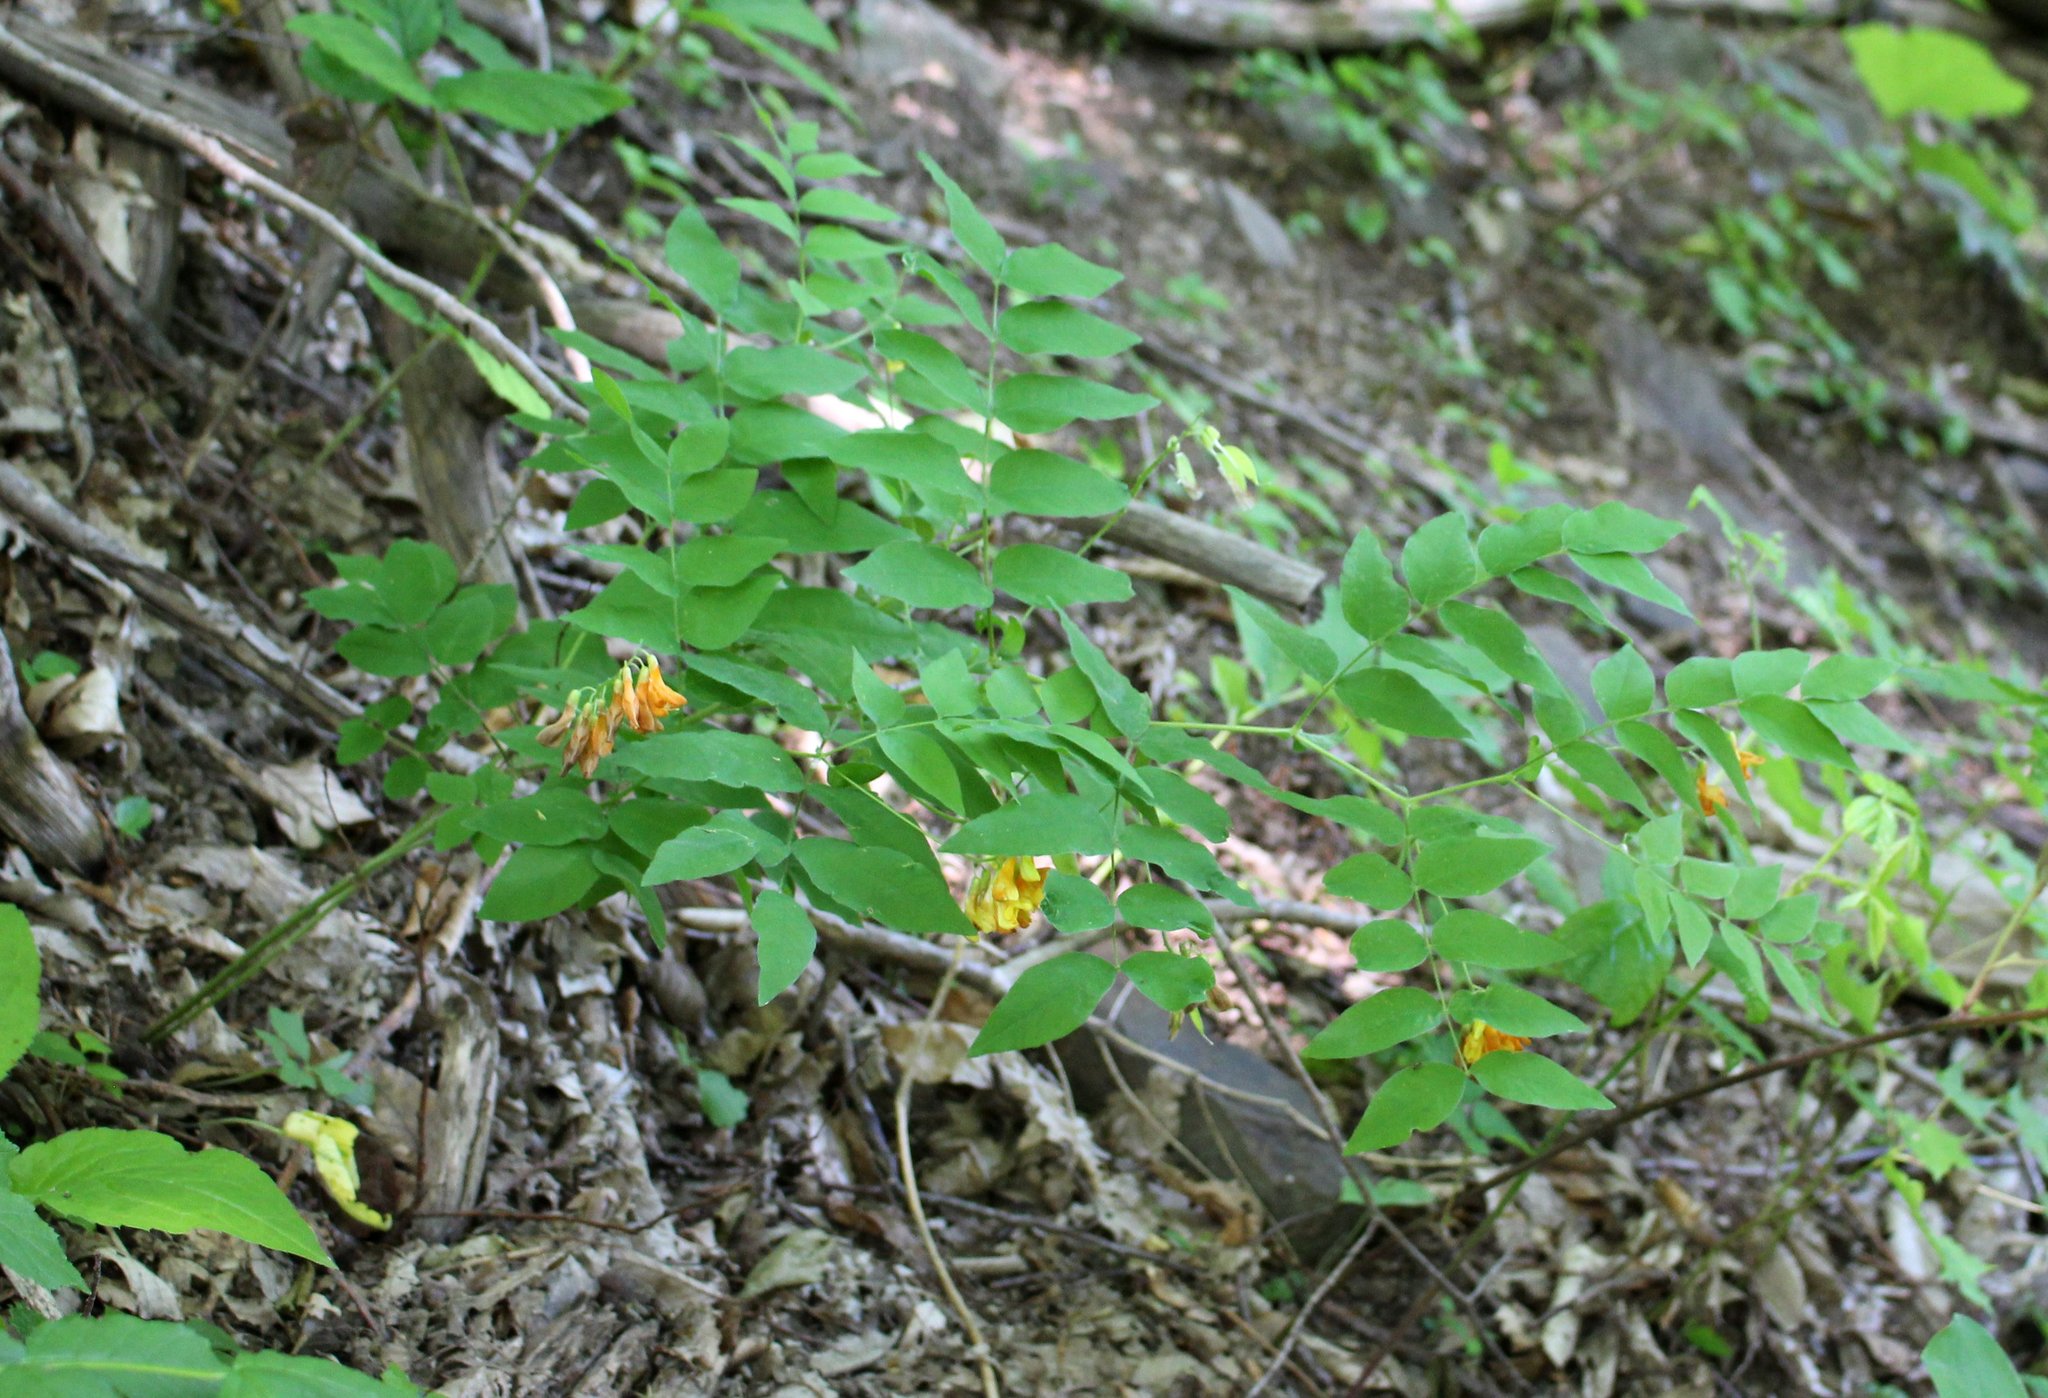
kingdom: Plantae
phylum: Tracheophyta
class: Magnoliopsida
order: Fabales
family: Fabaceae
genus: Vicia
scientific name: Vicia crocea
